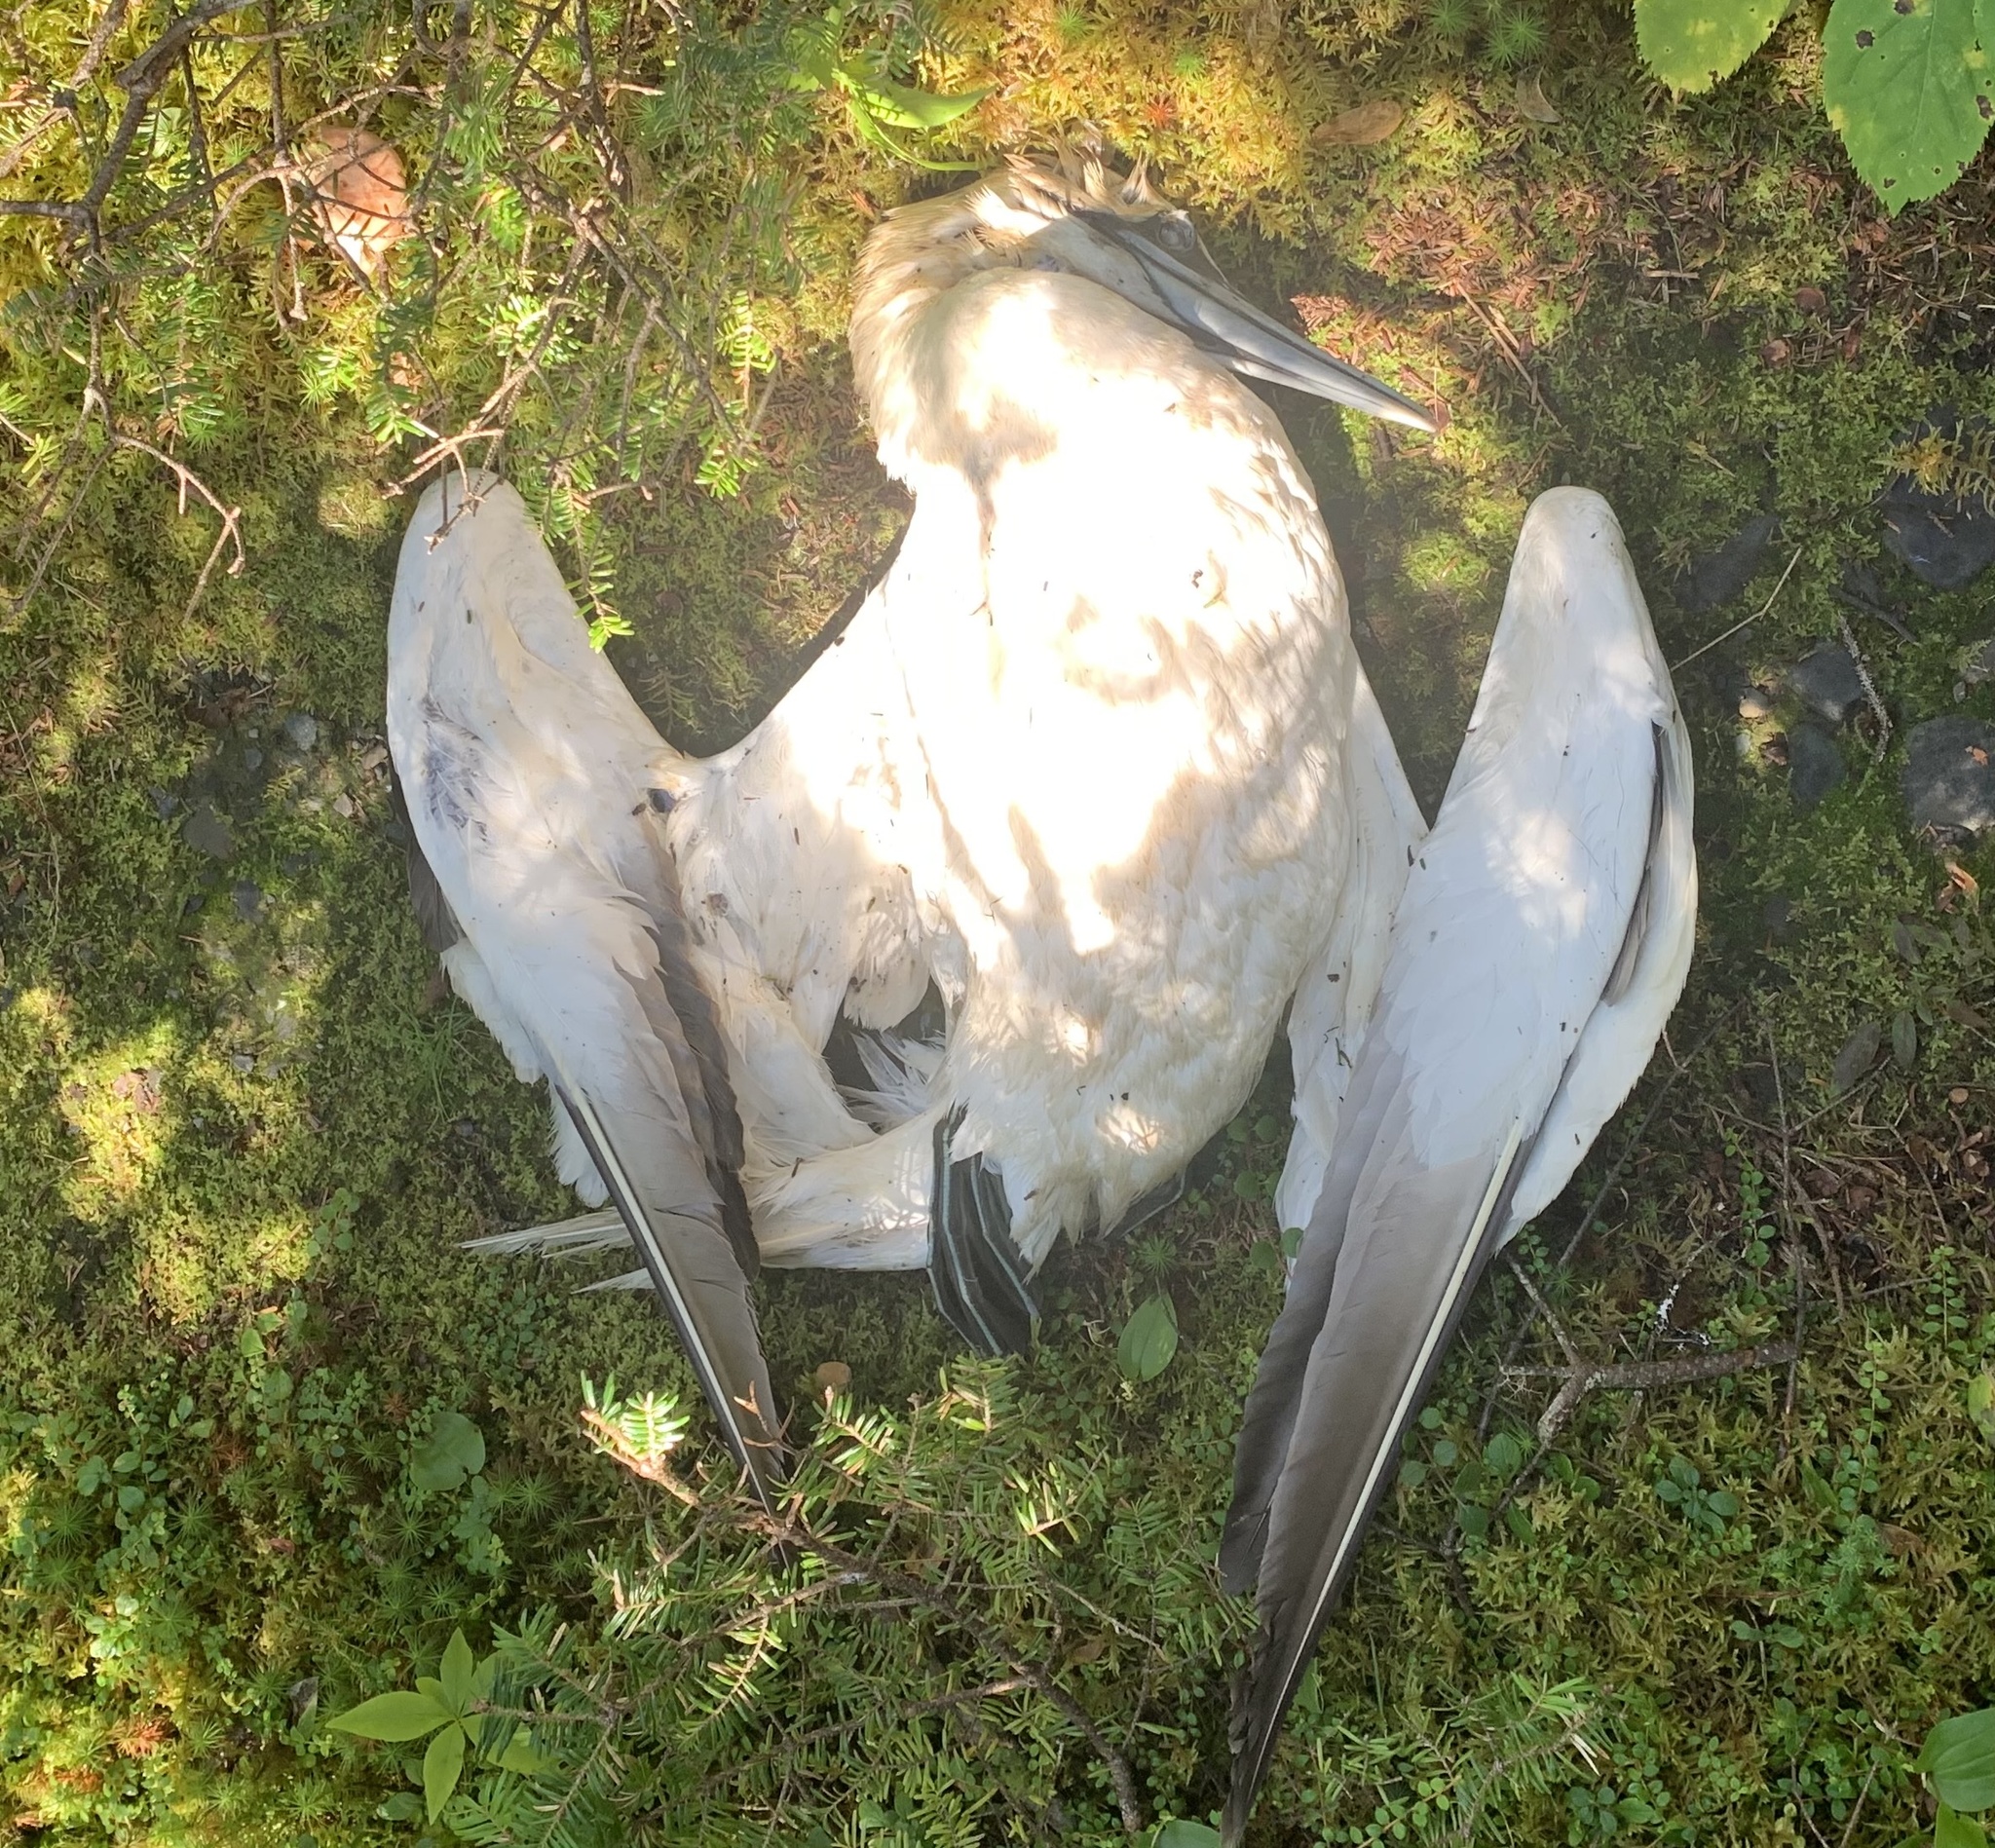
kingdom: Animalia
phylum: Chordata
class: Aves
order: Suliformes
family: Sulidae
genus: Morus
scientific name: Morus bassanus
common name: Northern gannet
